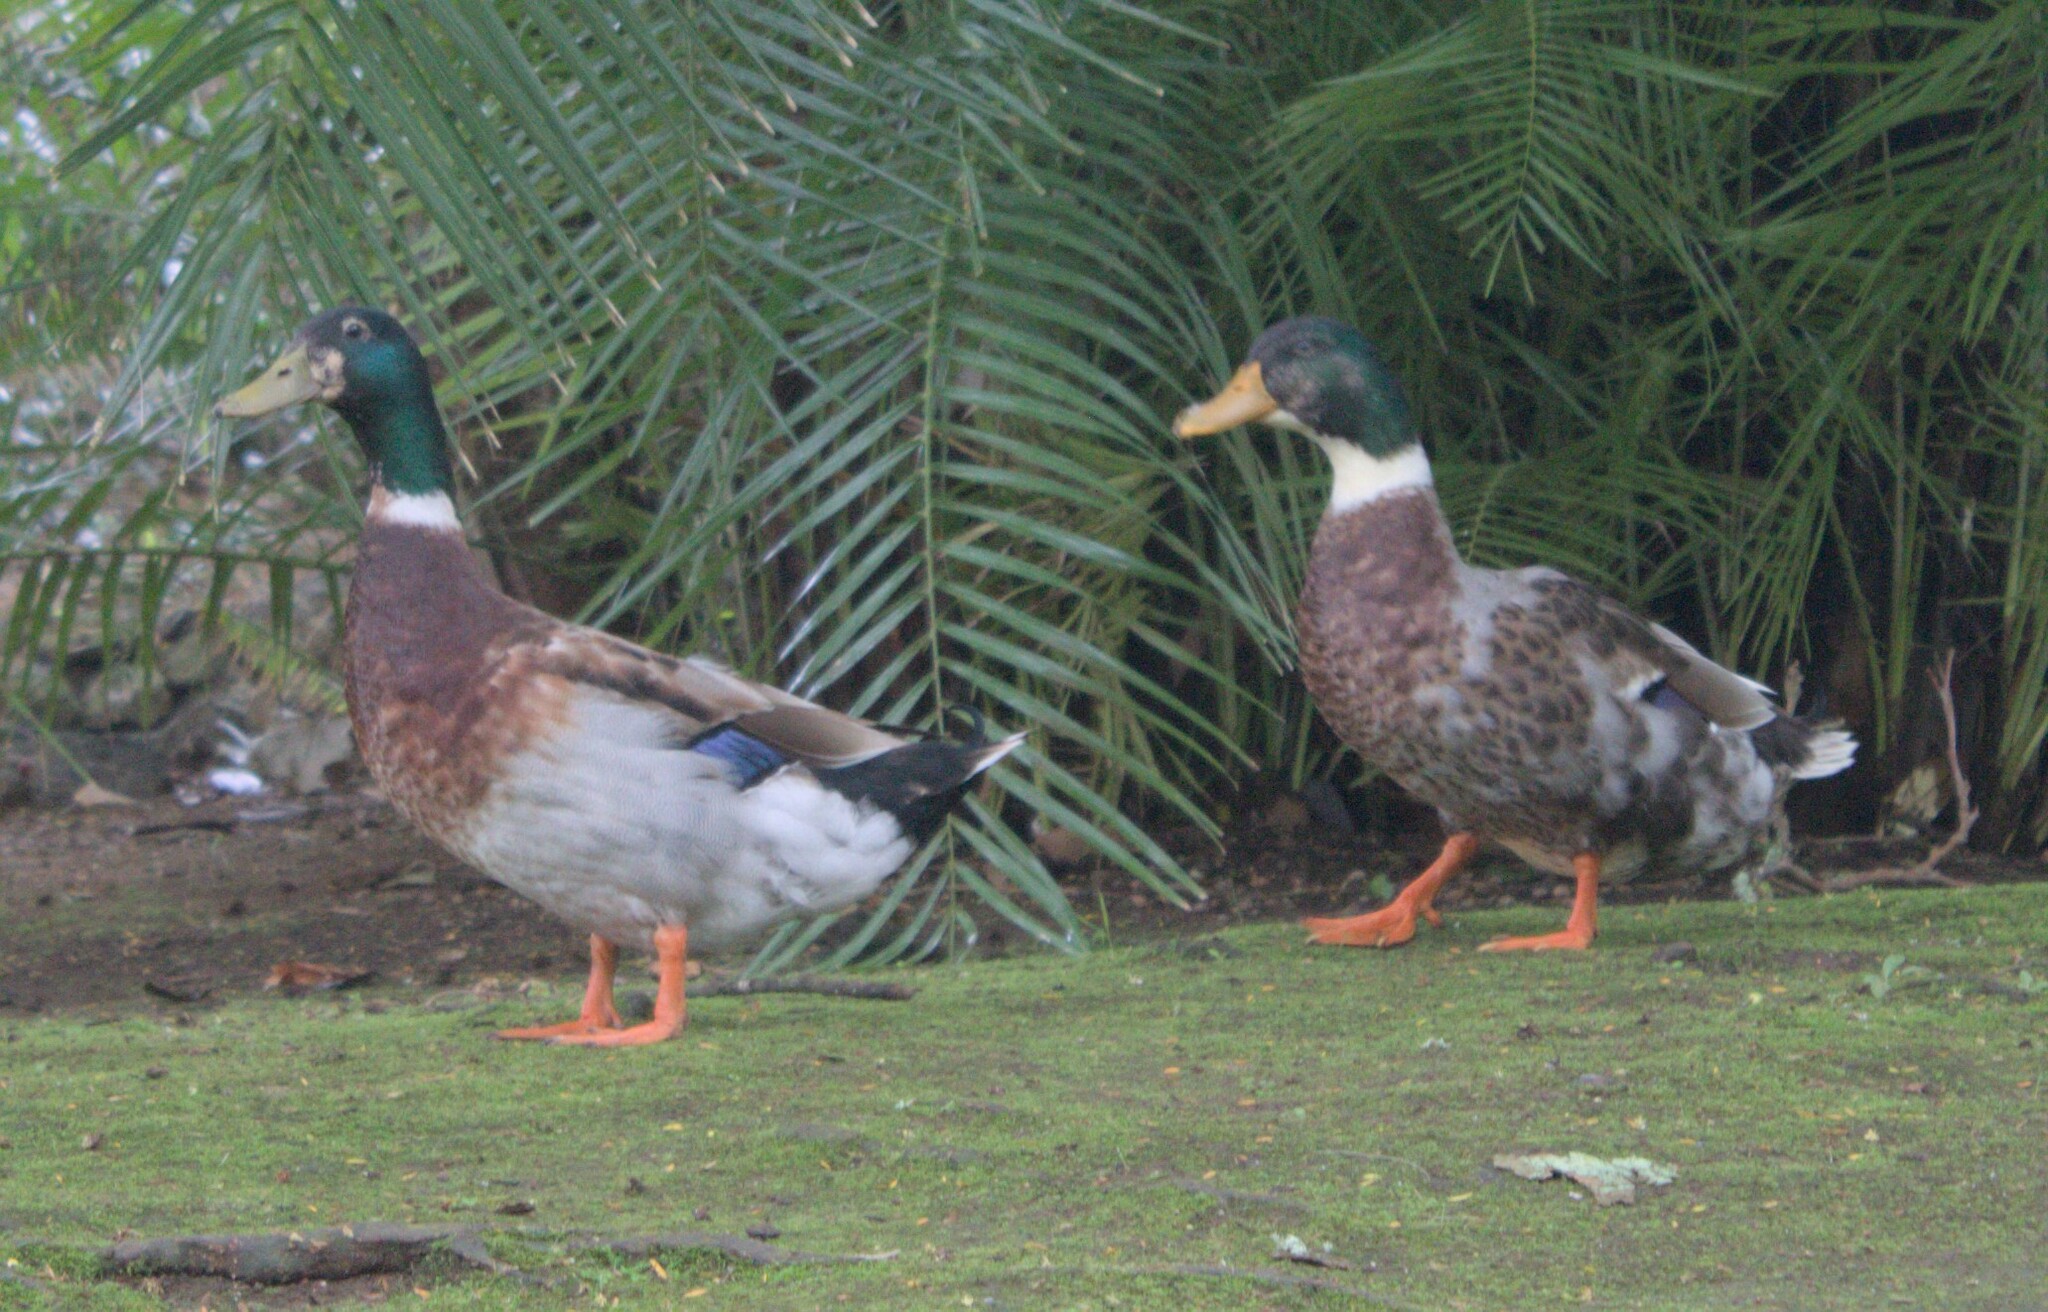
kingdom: Animalia
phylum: Chordata
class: Aves
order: Anseriformes
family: Anatidae
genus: Anas
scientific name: Anas platyrhynchos
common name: Mallard
